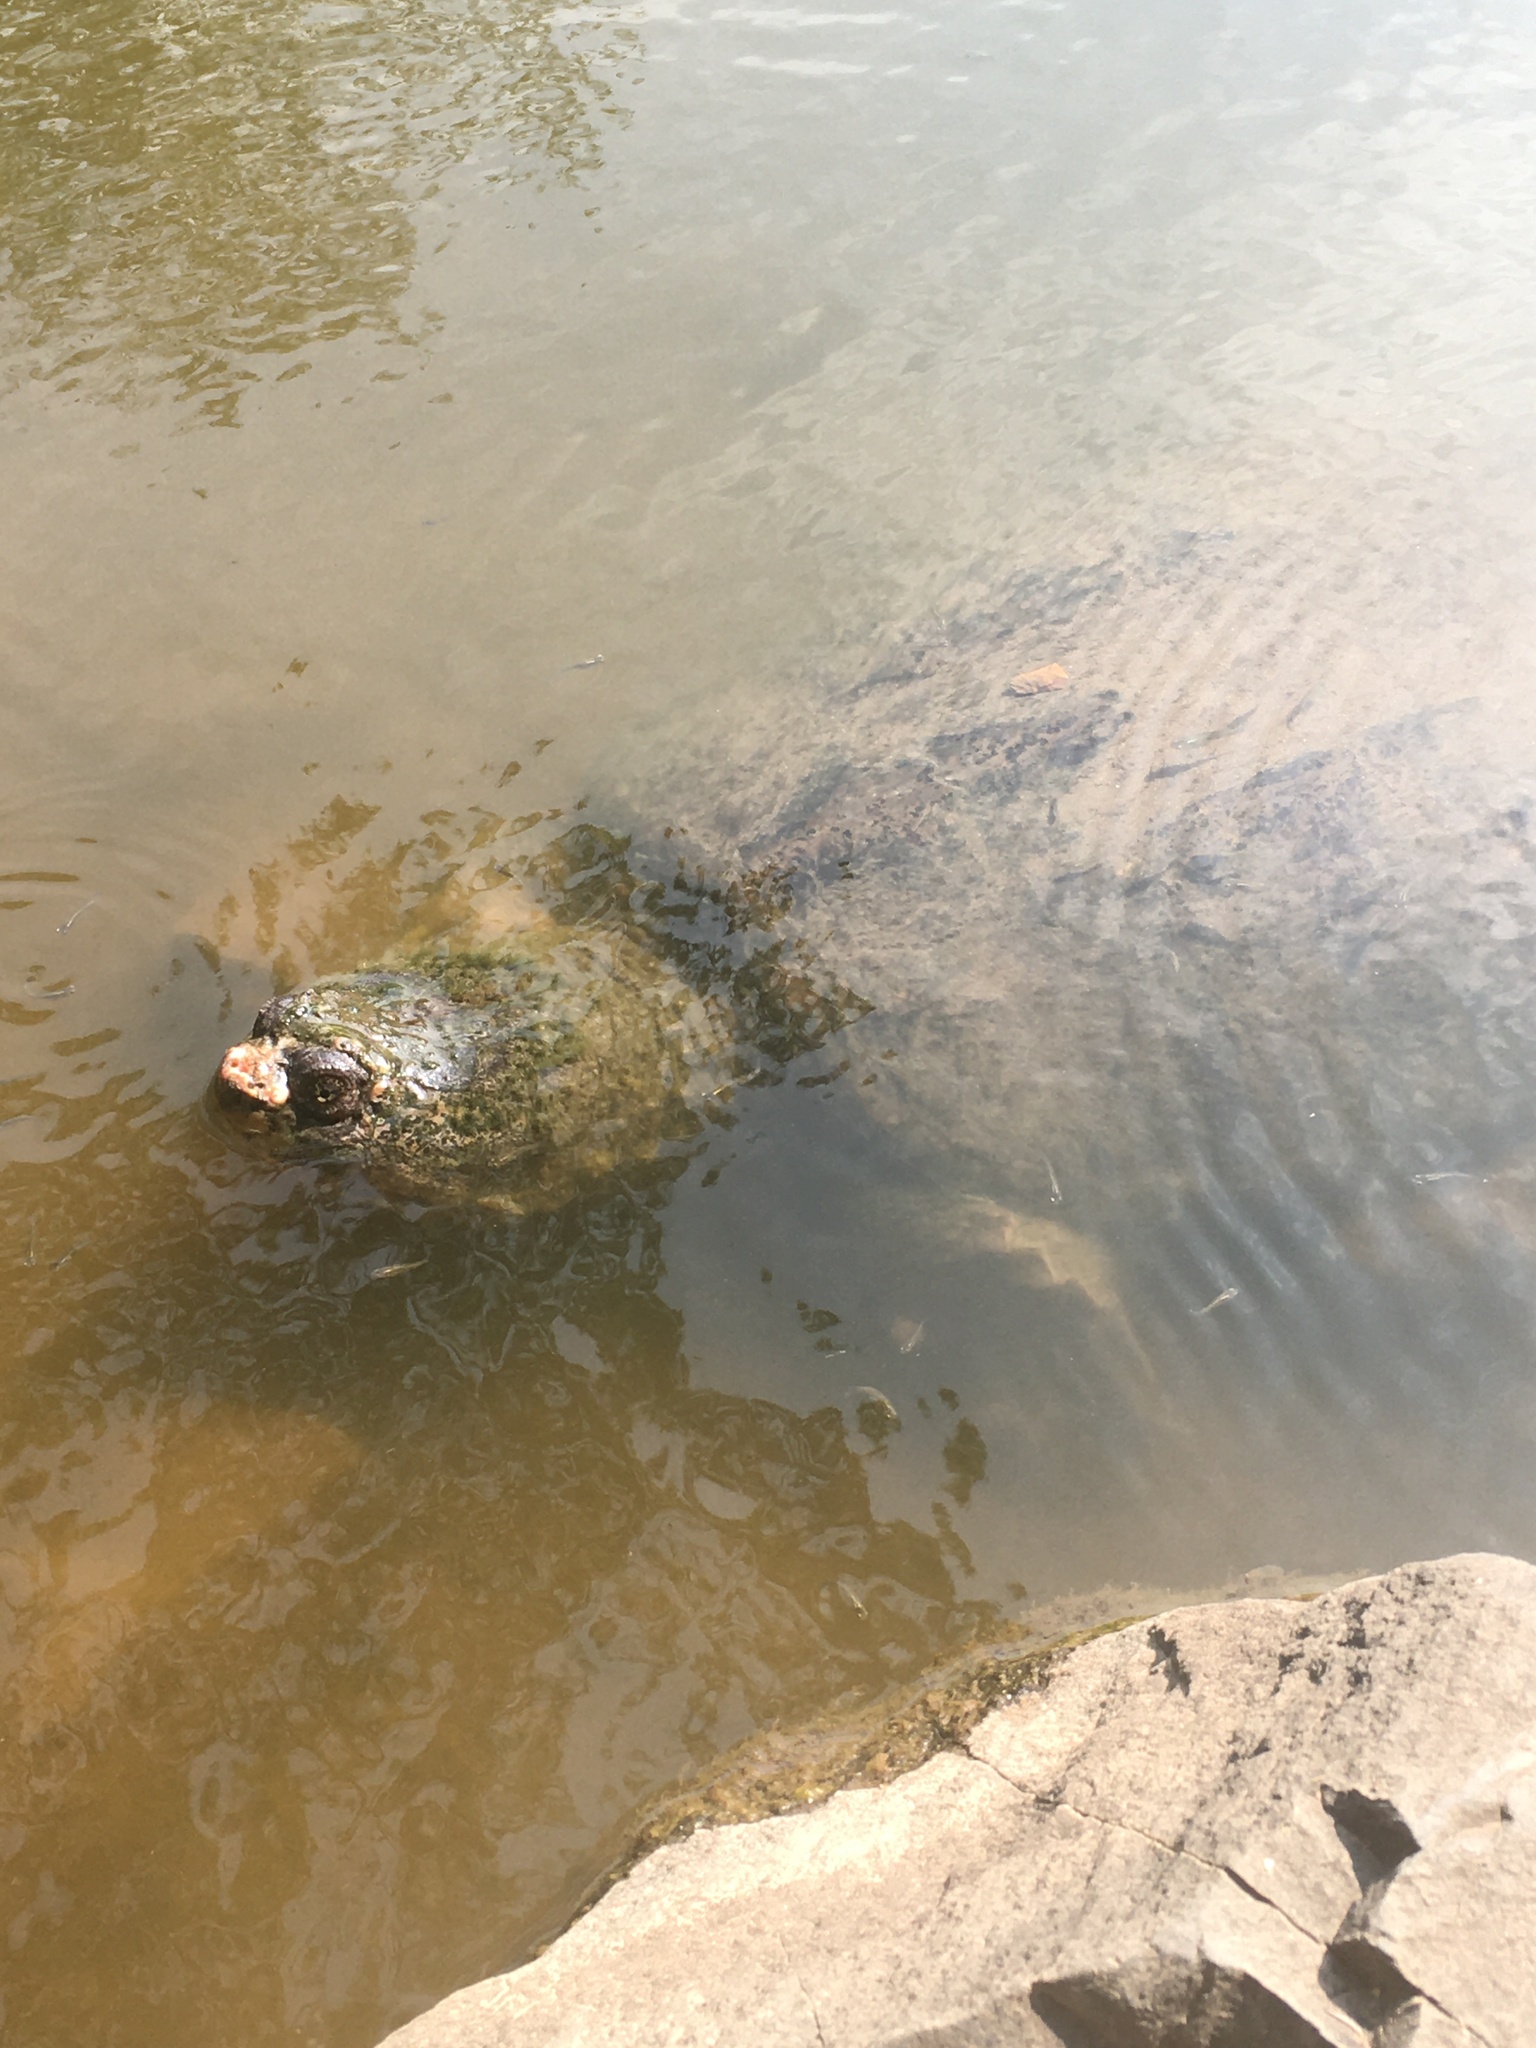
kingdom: Animalia
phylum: Chordata
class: Testudines
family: Chelydridae
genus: Chelydra
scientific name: Chelydra serpentina
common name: Common snapping turtle
